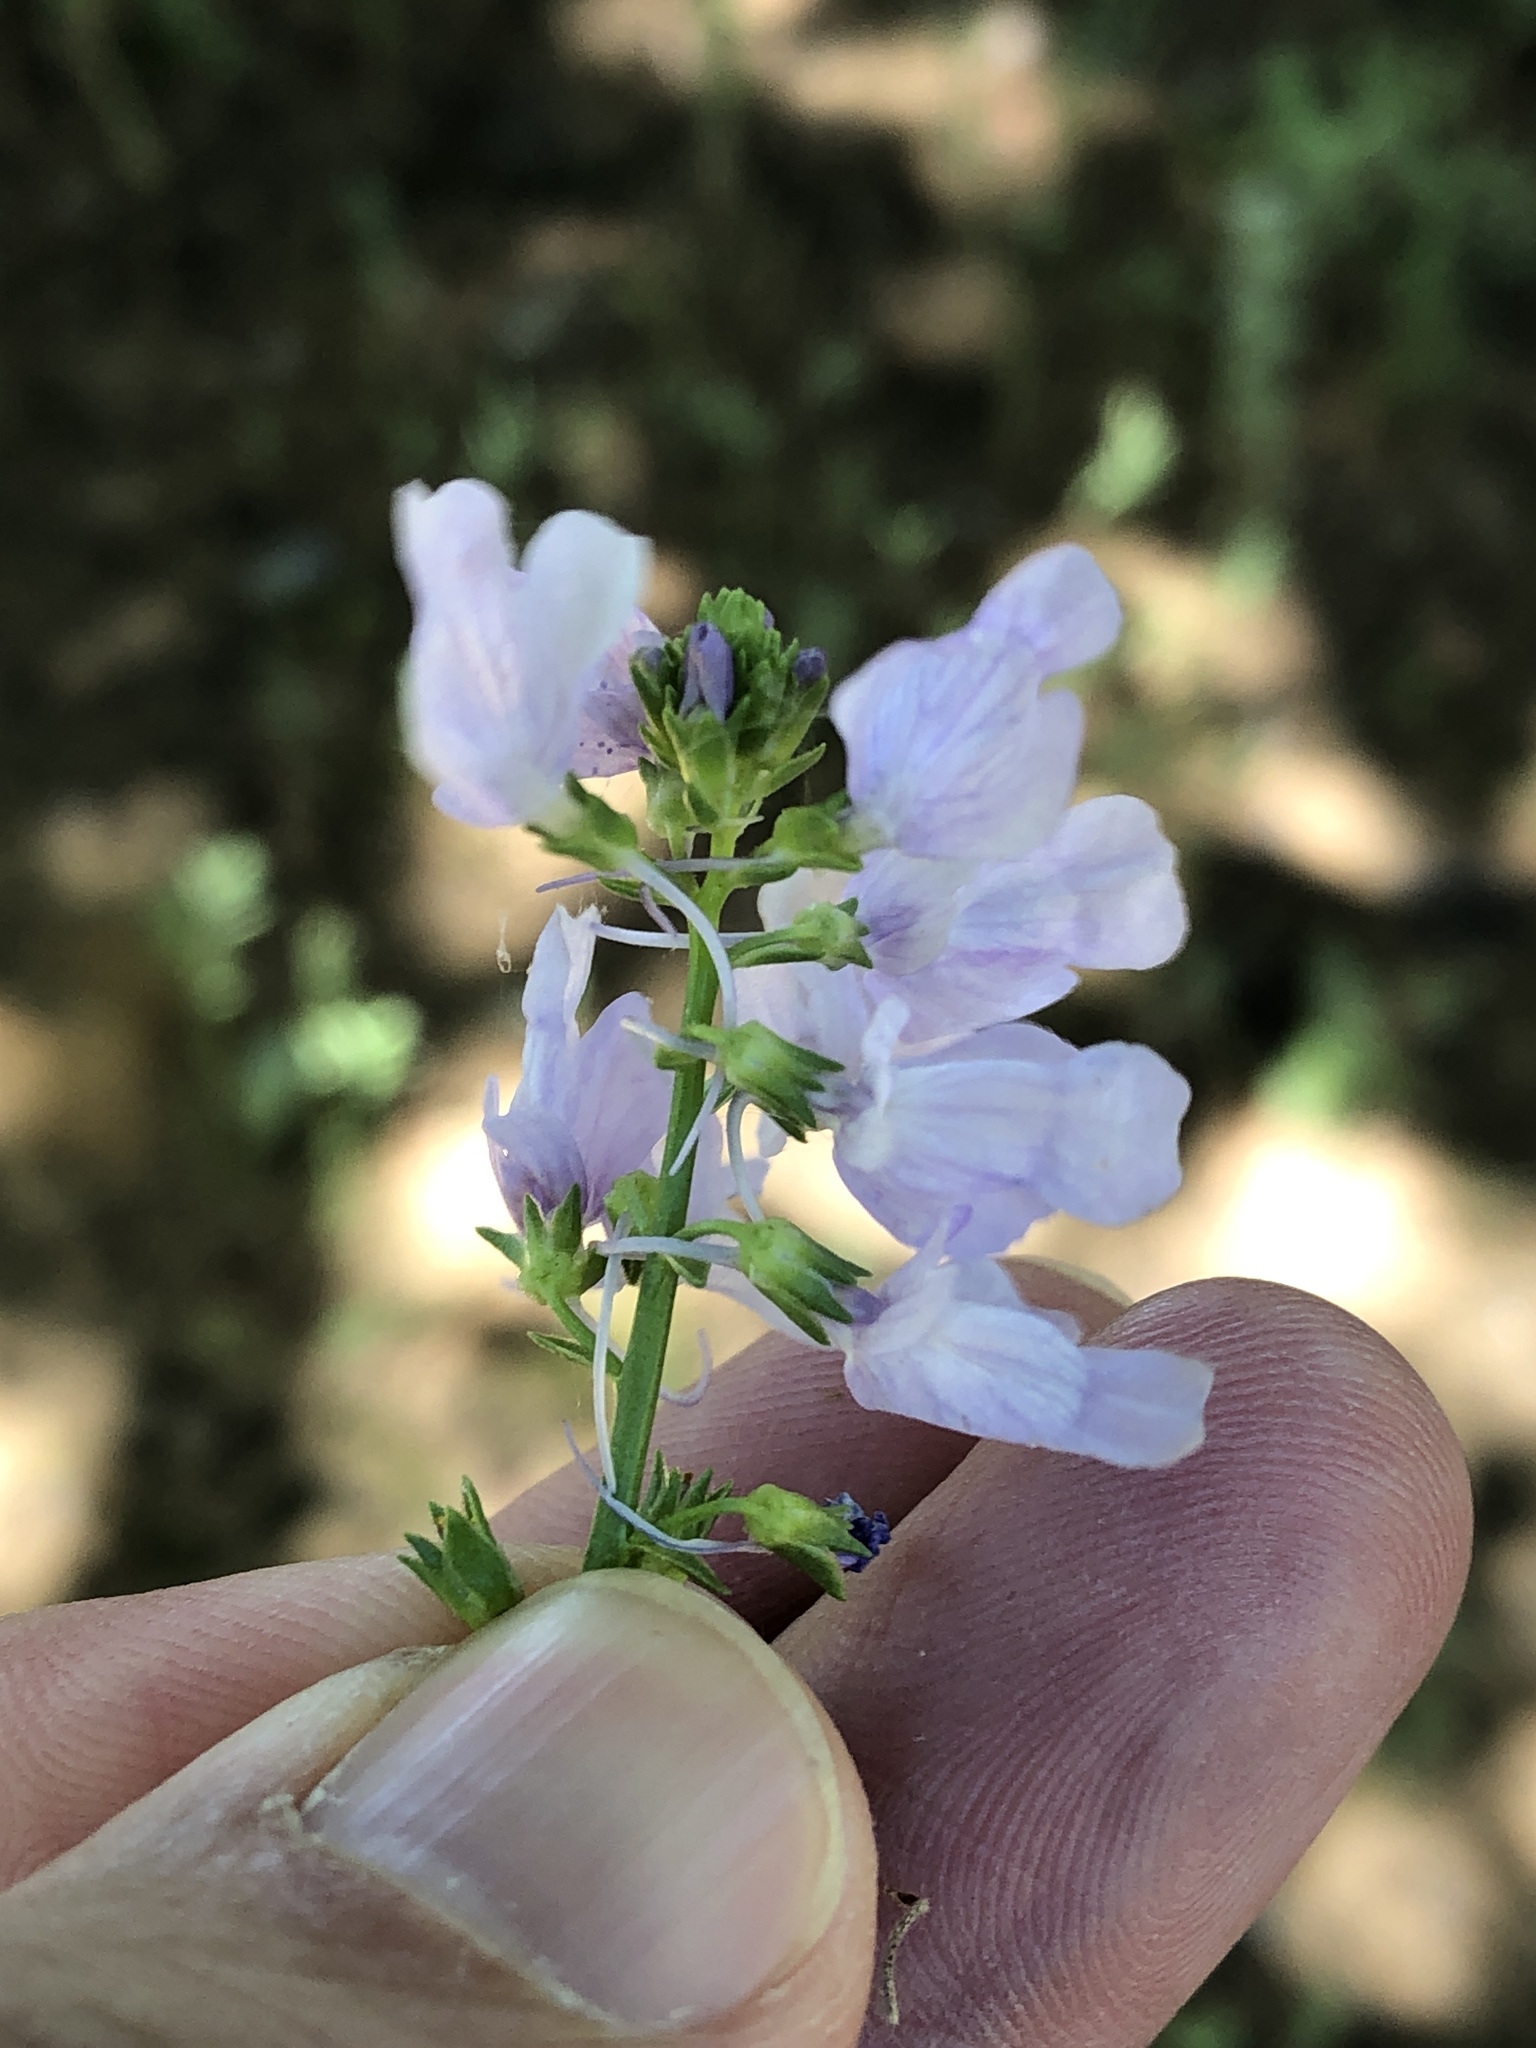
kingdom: Plantae
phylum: Tracheophyta
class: Magnoliopsida
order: Lamiales
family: Plantaginaceae
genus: Nuttallanthus
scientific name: Nuttallanthus texanus
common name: Texas toadflax
